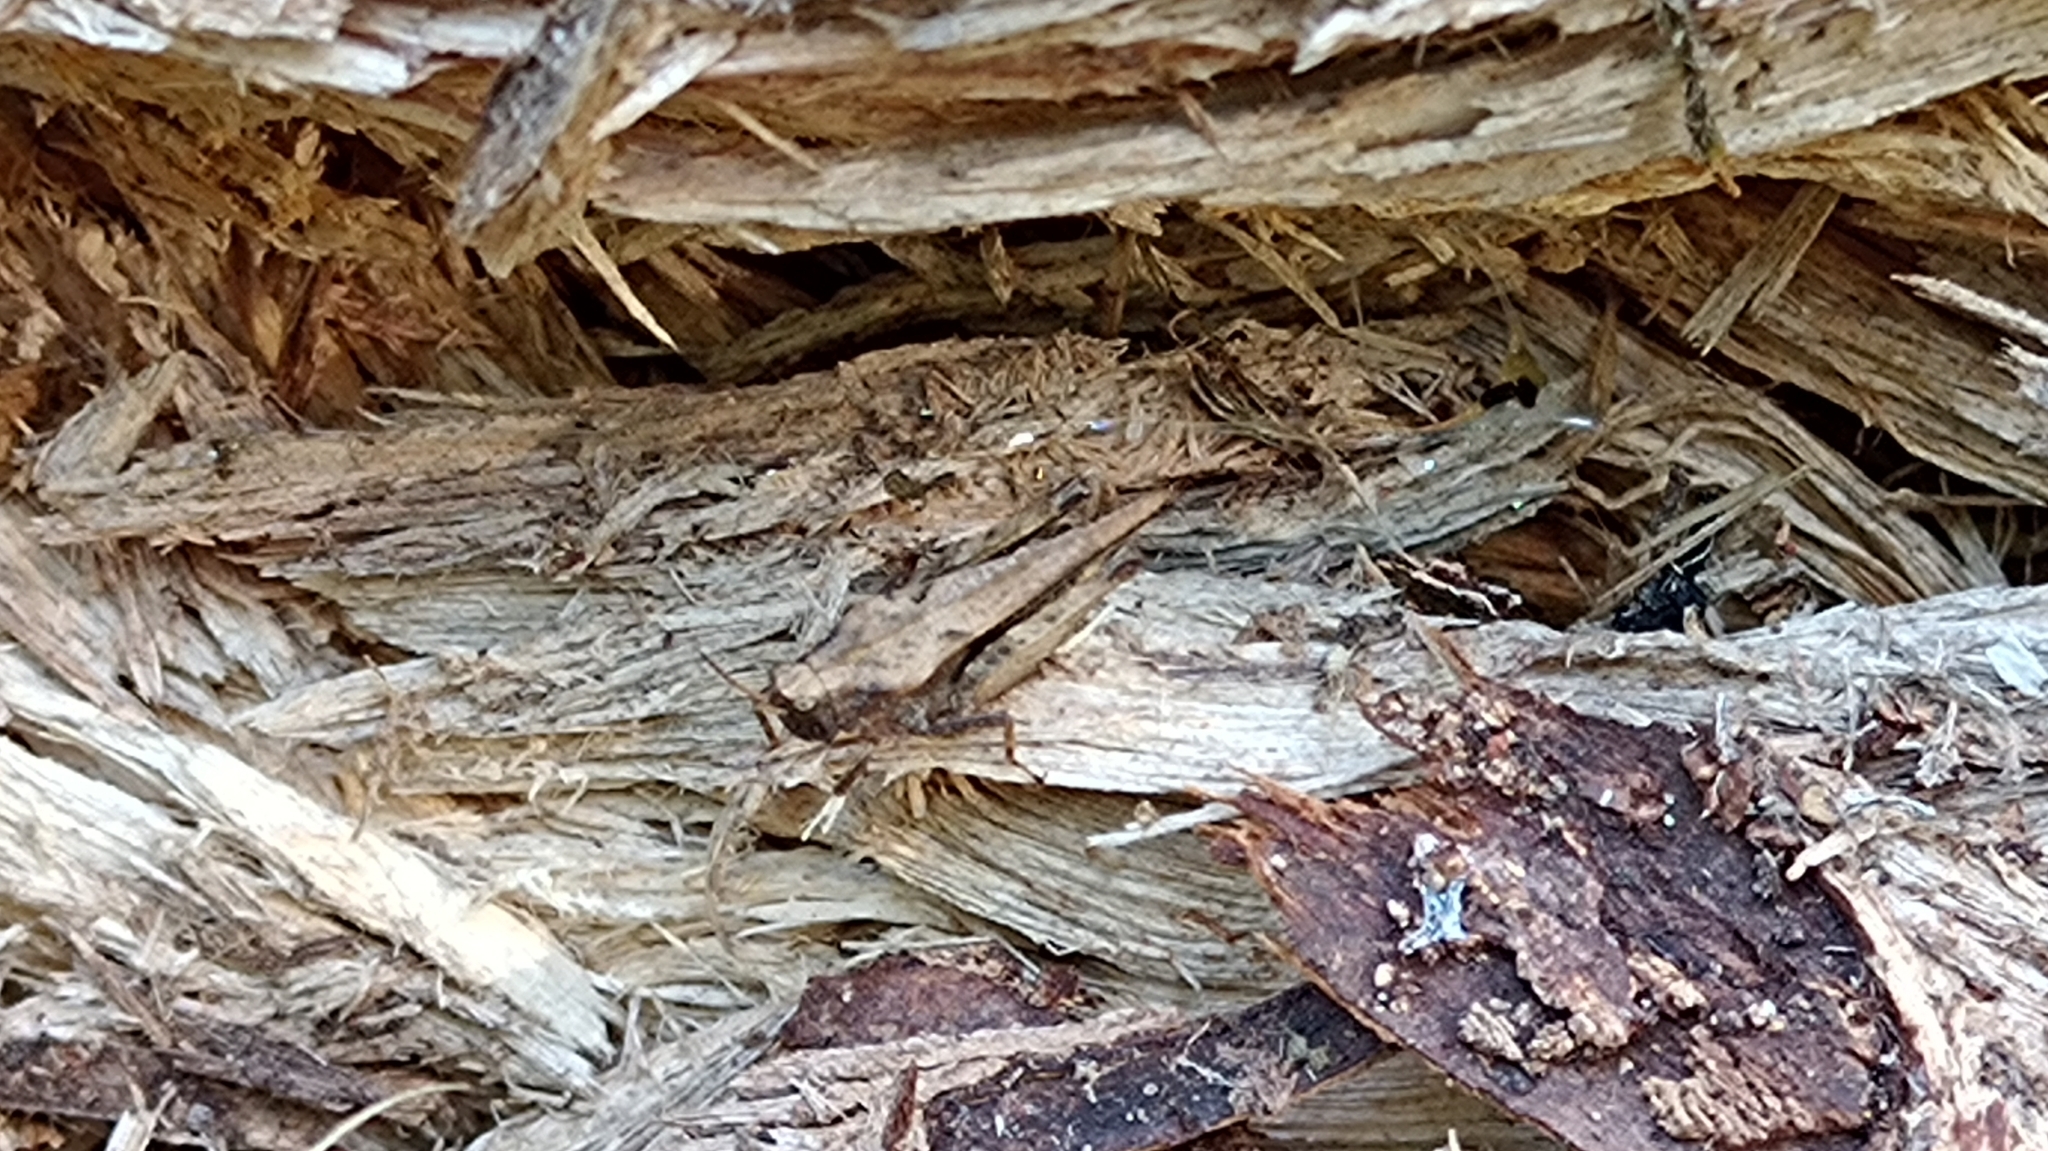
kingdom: Animalia
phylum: Arthropoda
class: Insecta
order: Orthoptera
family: Tetrigidae
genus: Tetrix
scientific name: Tetrix subulata
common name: Slender ground-hopper
